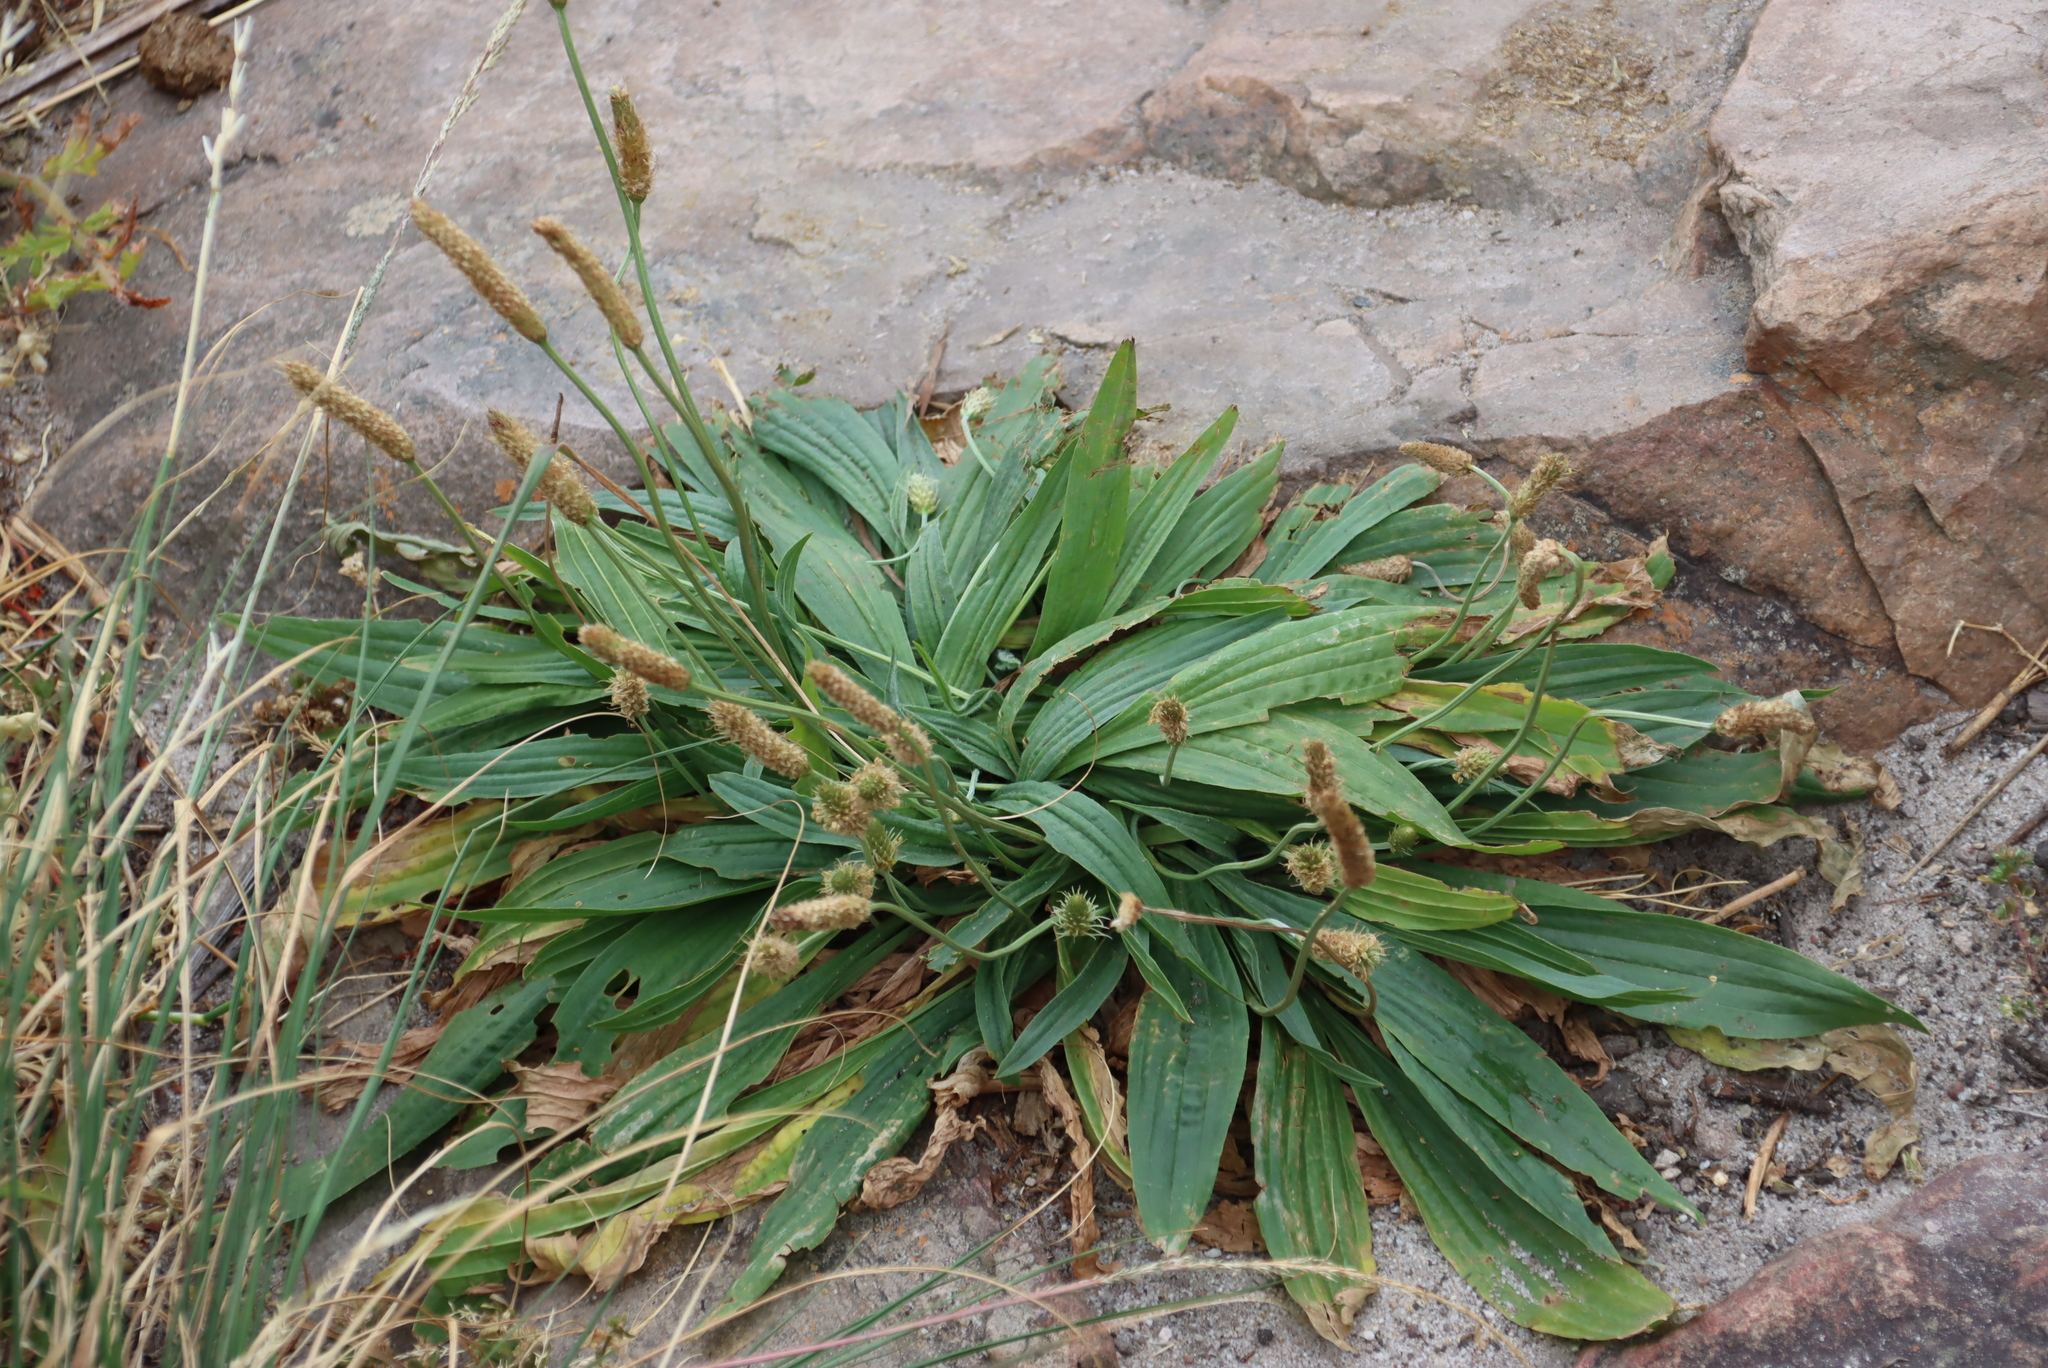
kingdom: Plantae
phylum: Tracheophyta
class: Magnoliopsida
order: Lamiales
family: Plantaginaceae
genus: Plantago
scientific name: Plantago lanceolata
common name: Ribwort plantain
